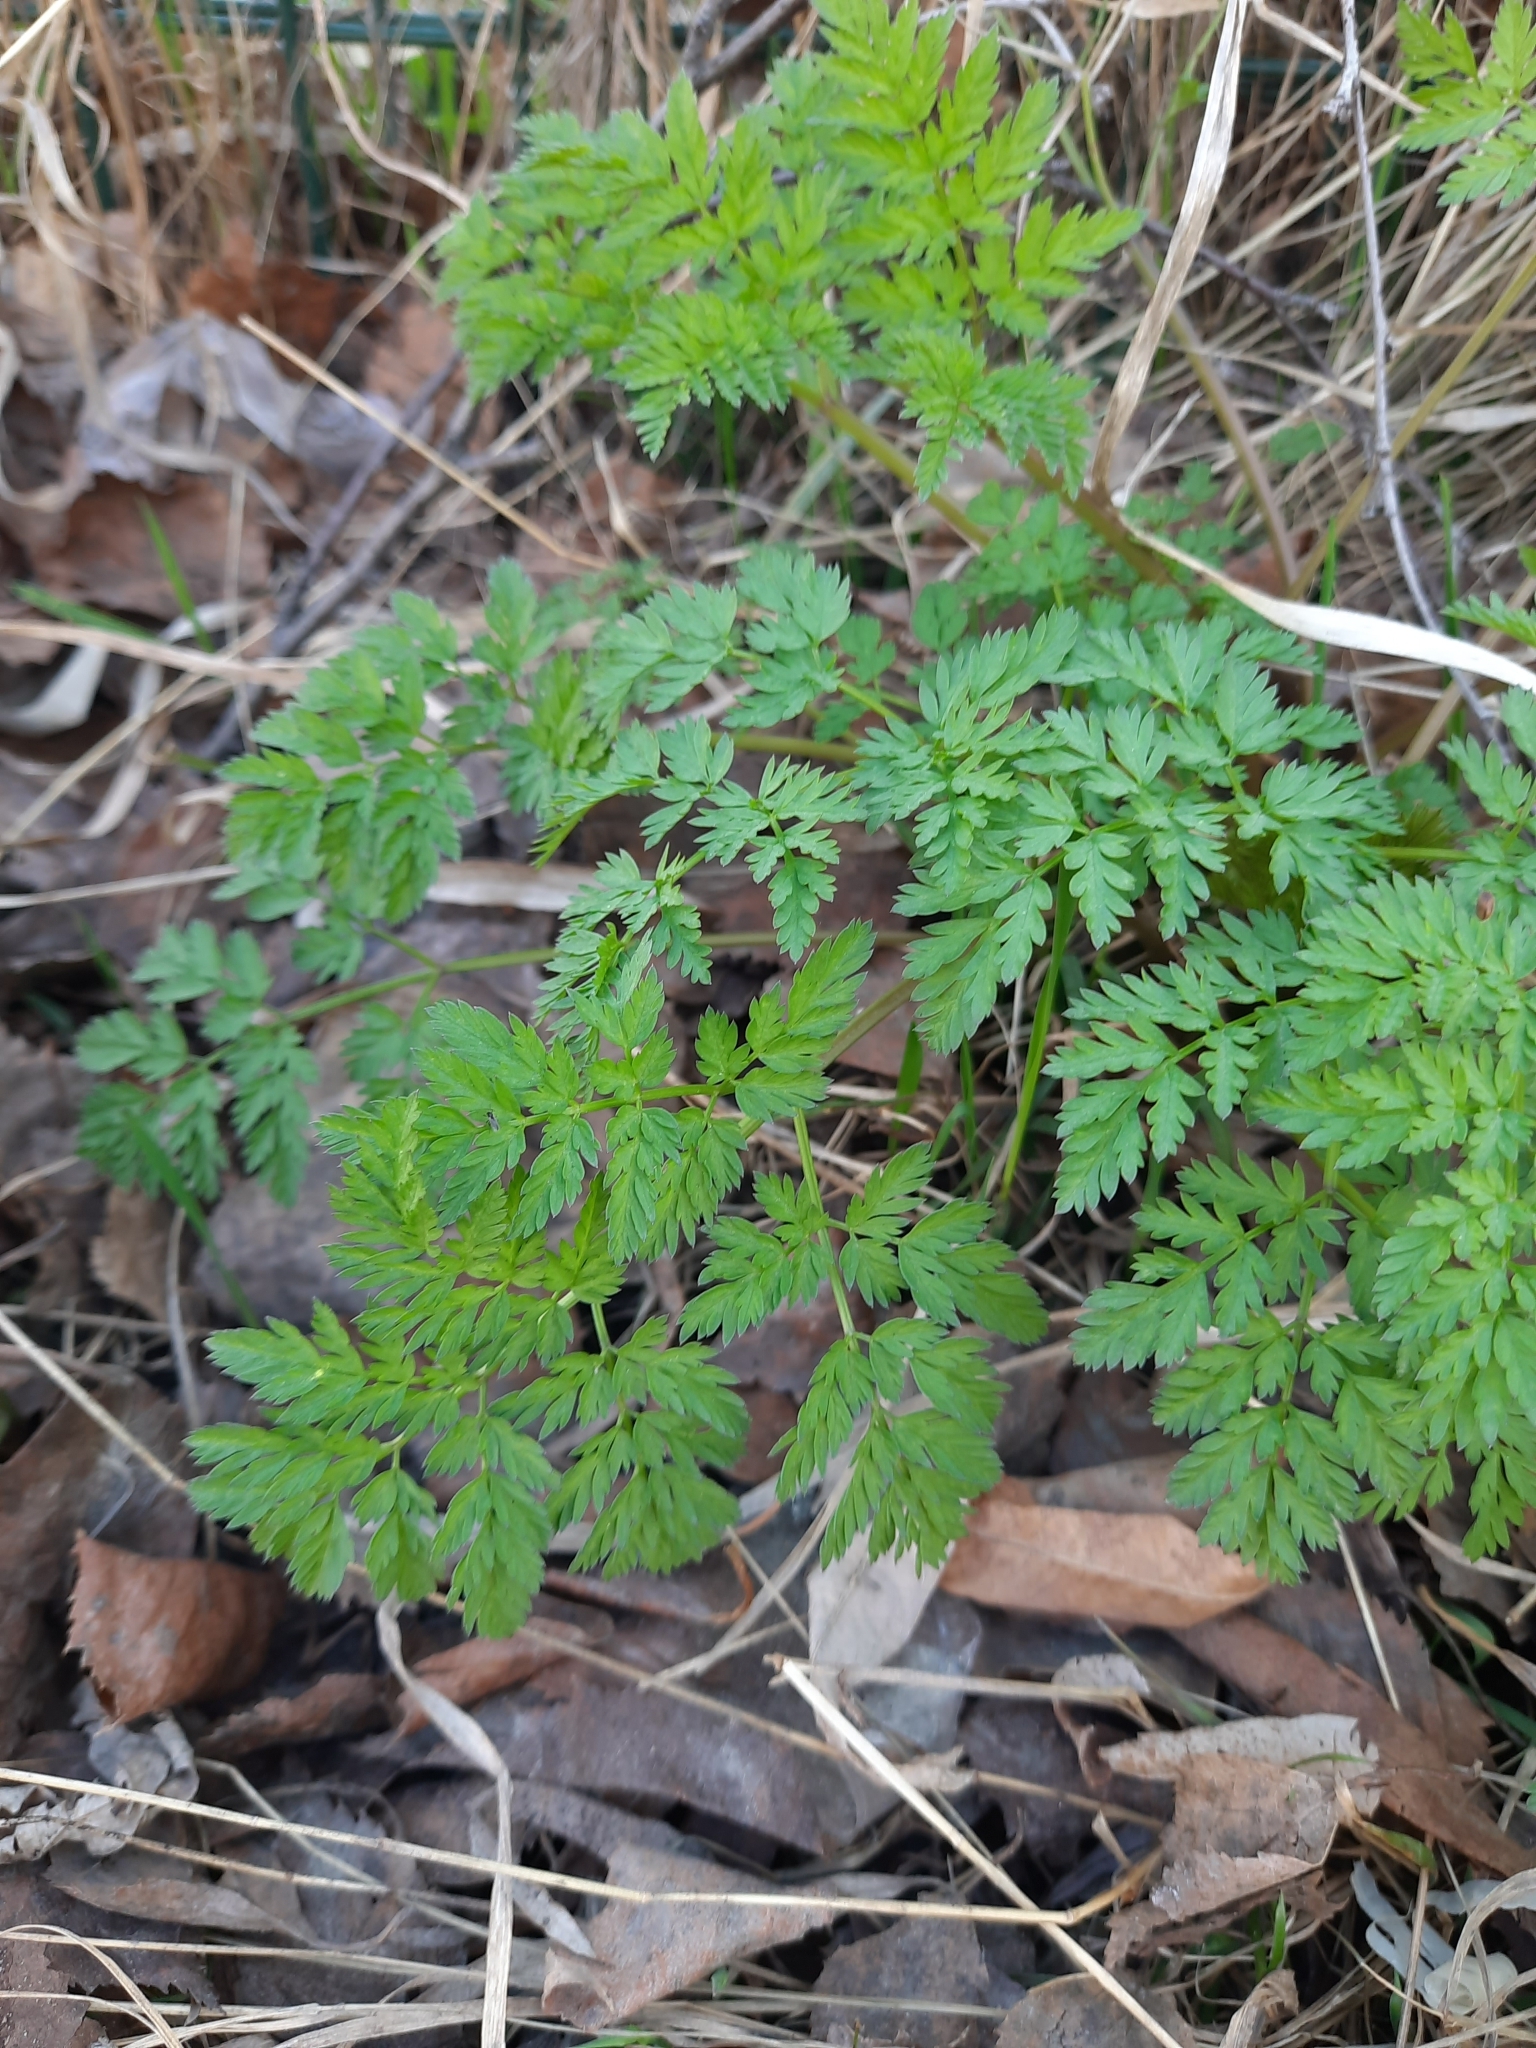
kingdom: Plantae
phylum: Tracheophyta
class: Magnoliopsida
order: Apiales
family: Apiaceae
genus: Anthriscus
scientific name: Anthriscus sylvestris
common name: Cow parsley
